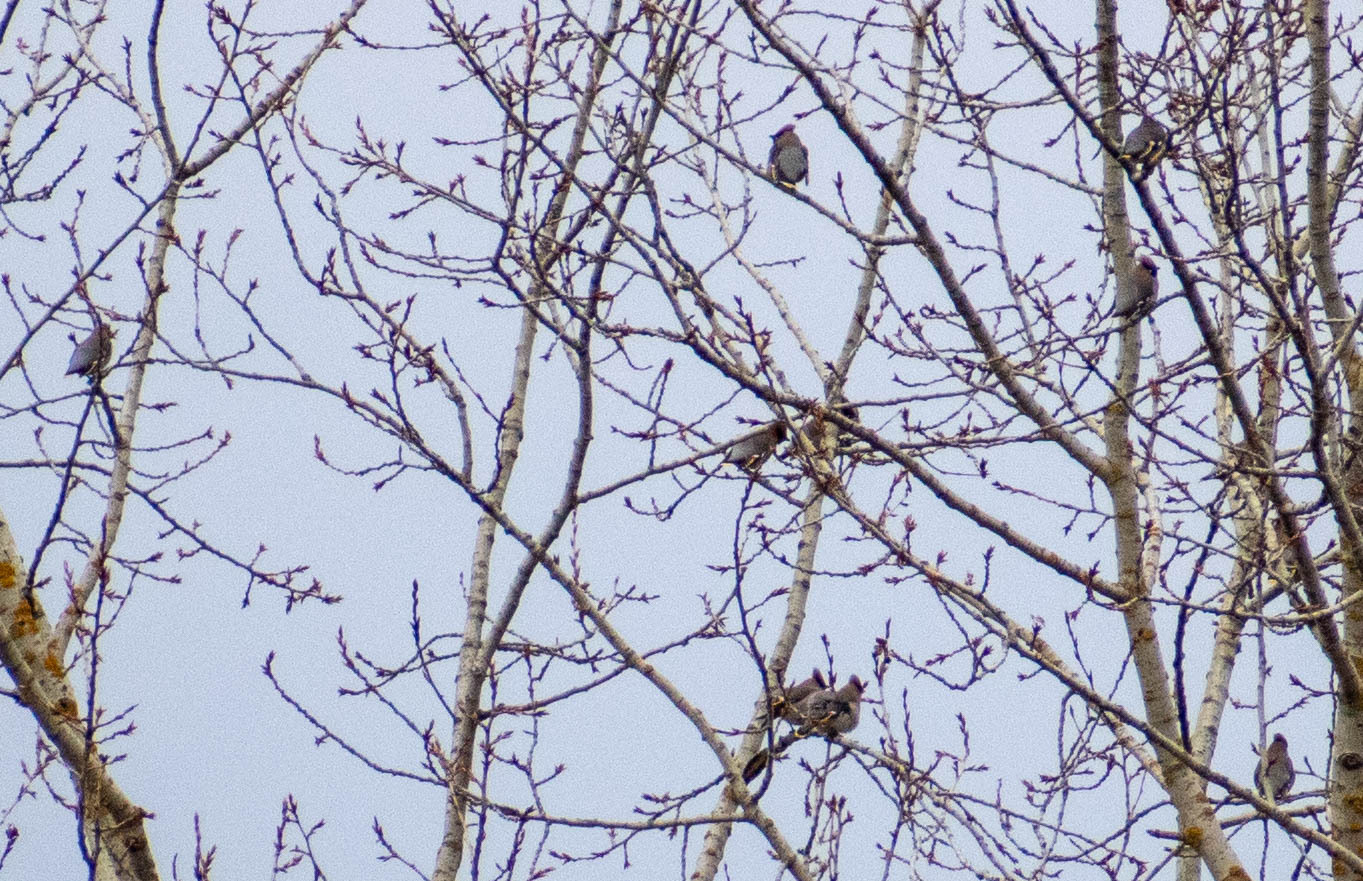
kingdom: Animalia
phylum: Chordata
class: Aves
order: Passeriformes
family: Bombycillidae
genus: Bombycilla
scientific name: Bombycilla garrulus
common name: Bohemian waxwing
